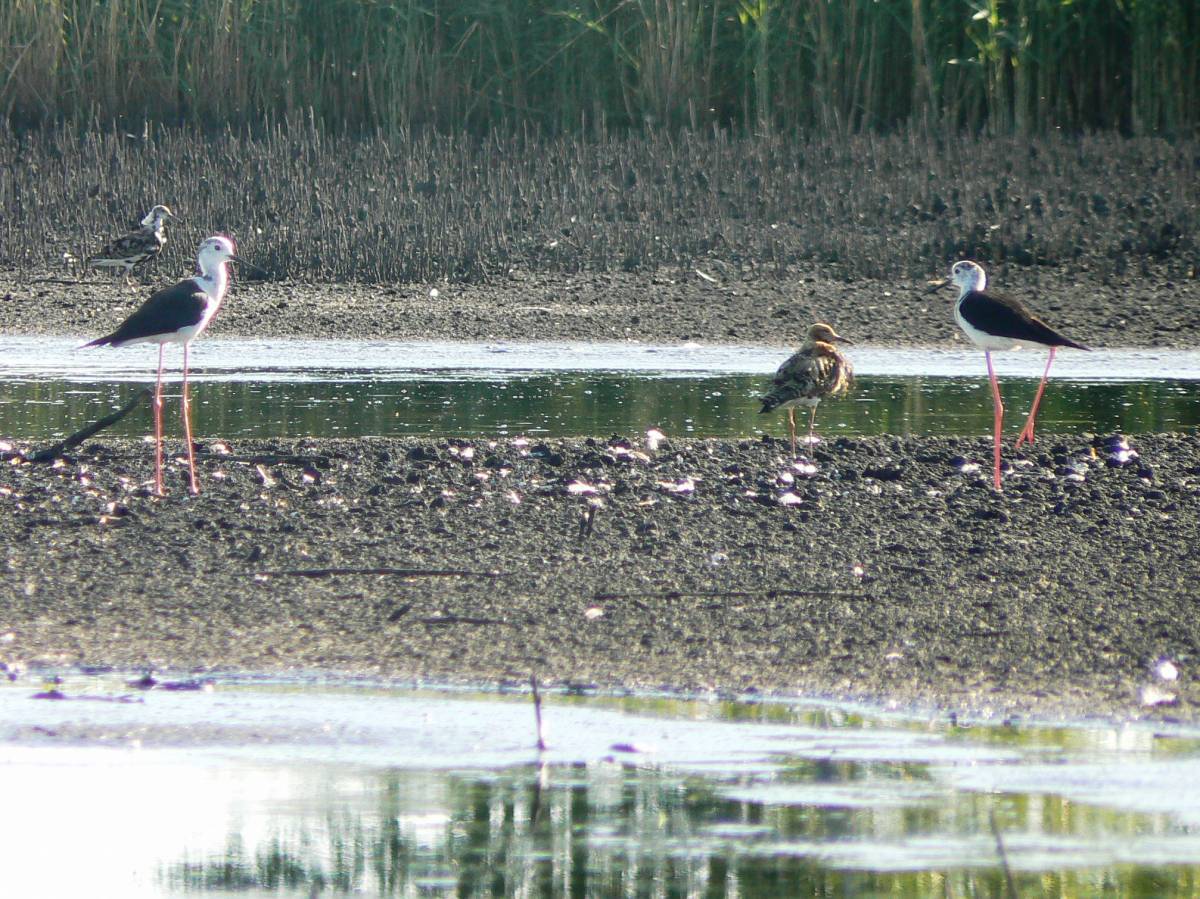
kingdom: Animalia
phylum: Chordata
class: Aves
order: Charadriiformes
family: Recurvirostridae
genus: Himantopus
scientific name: Himantopus himantopus
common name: Black-winged stilt
